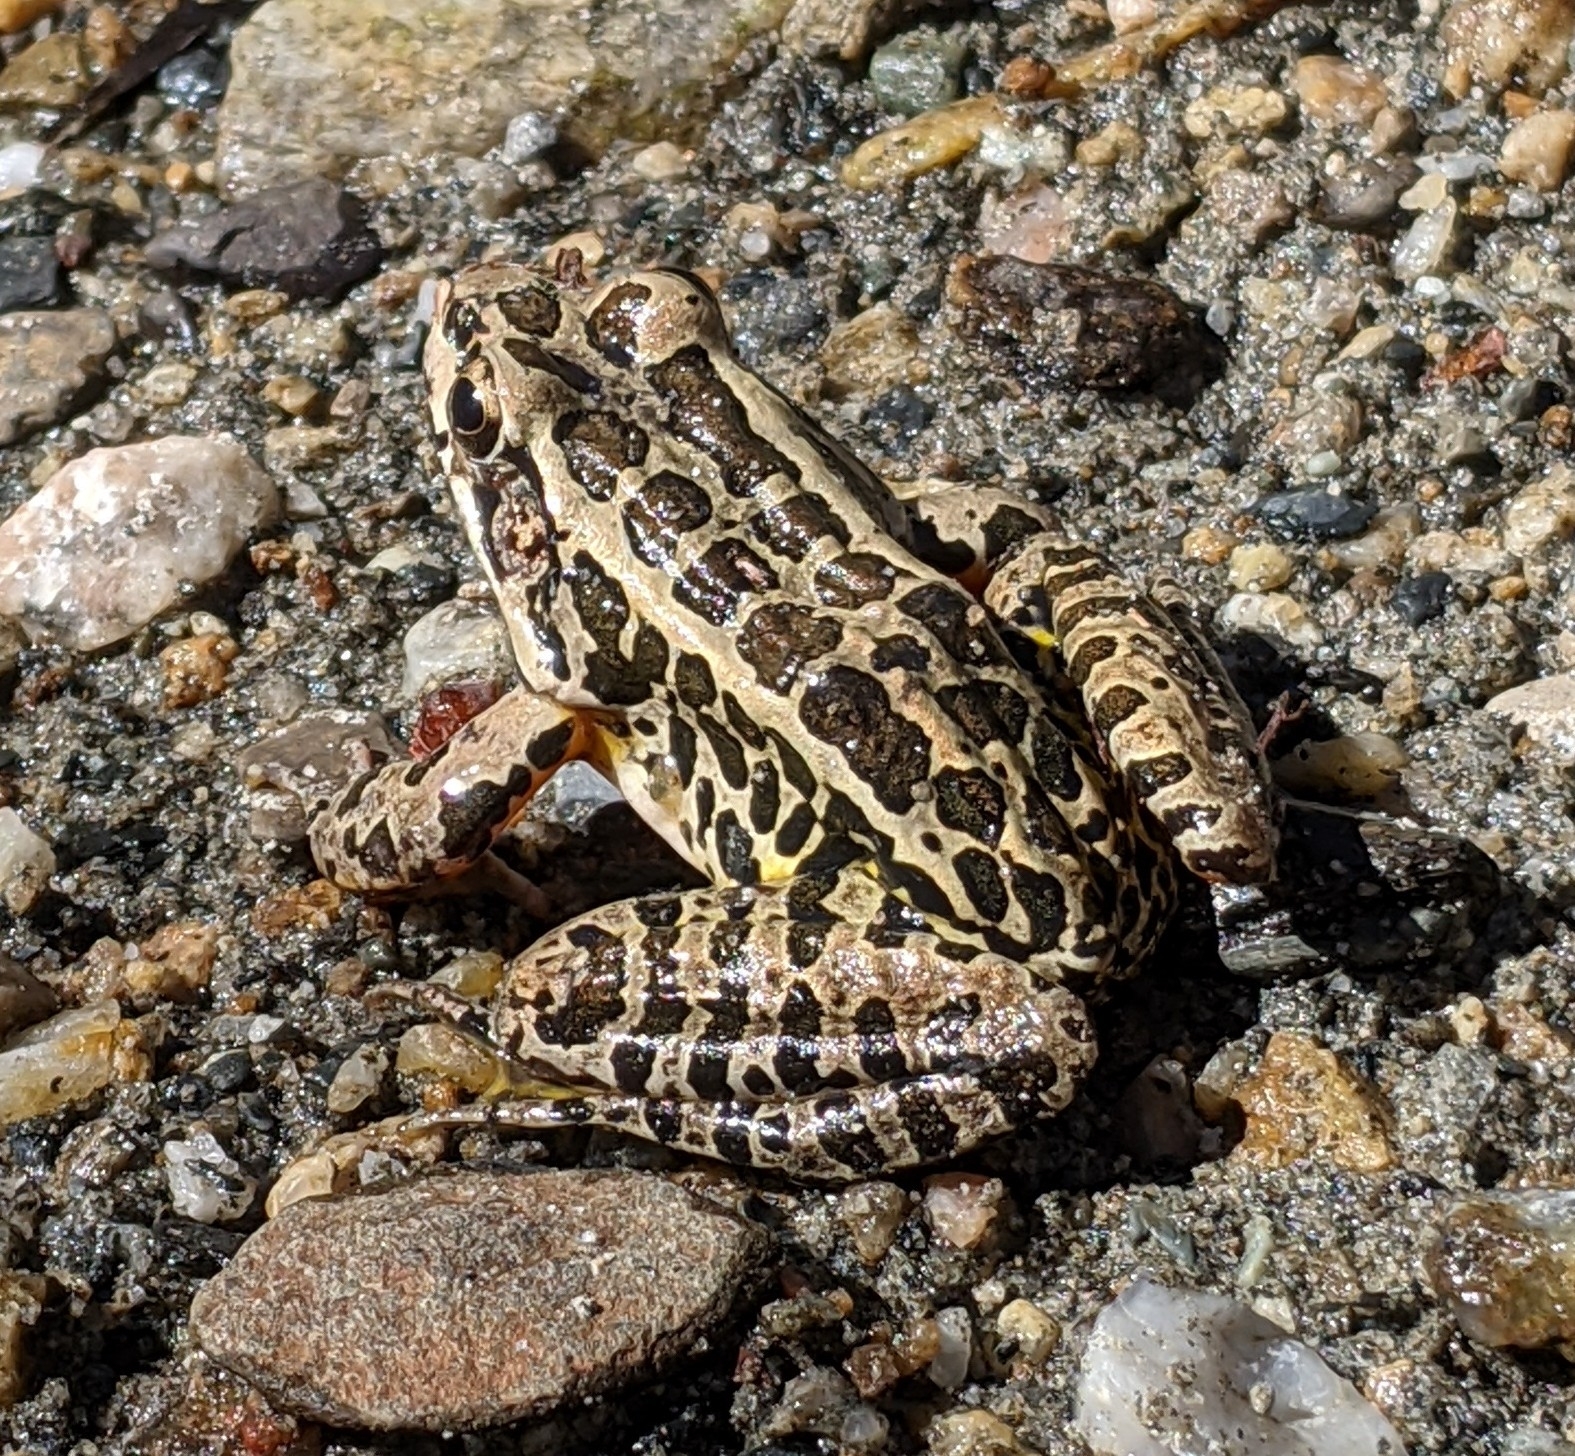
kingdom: Animalia
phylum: Chordata
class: Amphibia
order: Anura
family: Ranidae
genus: Lithobates
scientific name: Lithobates palustris
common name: Pickerel frog
